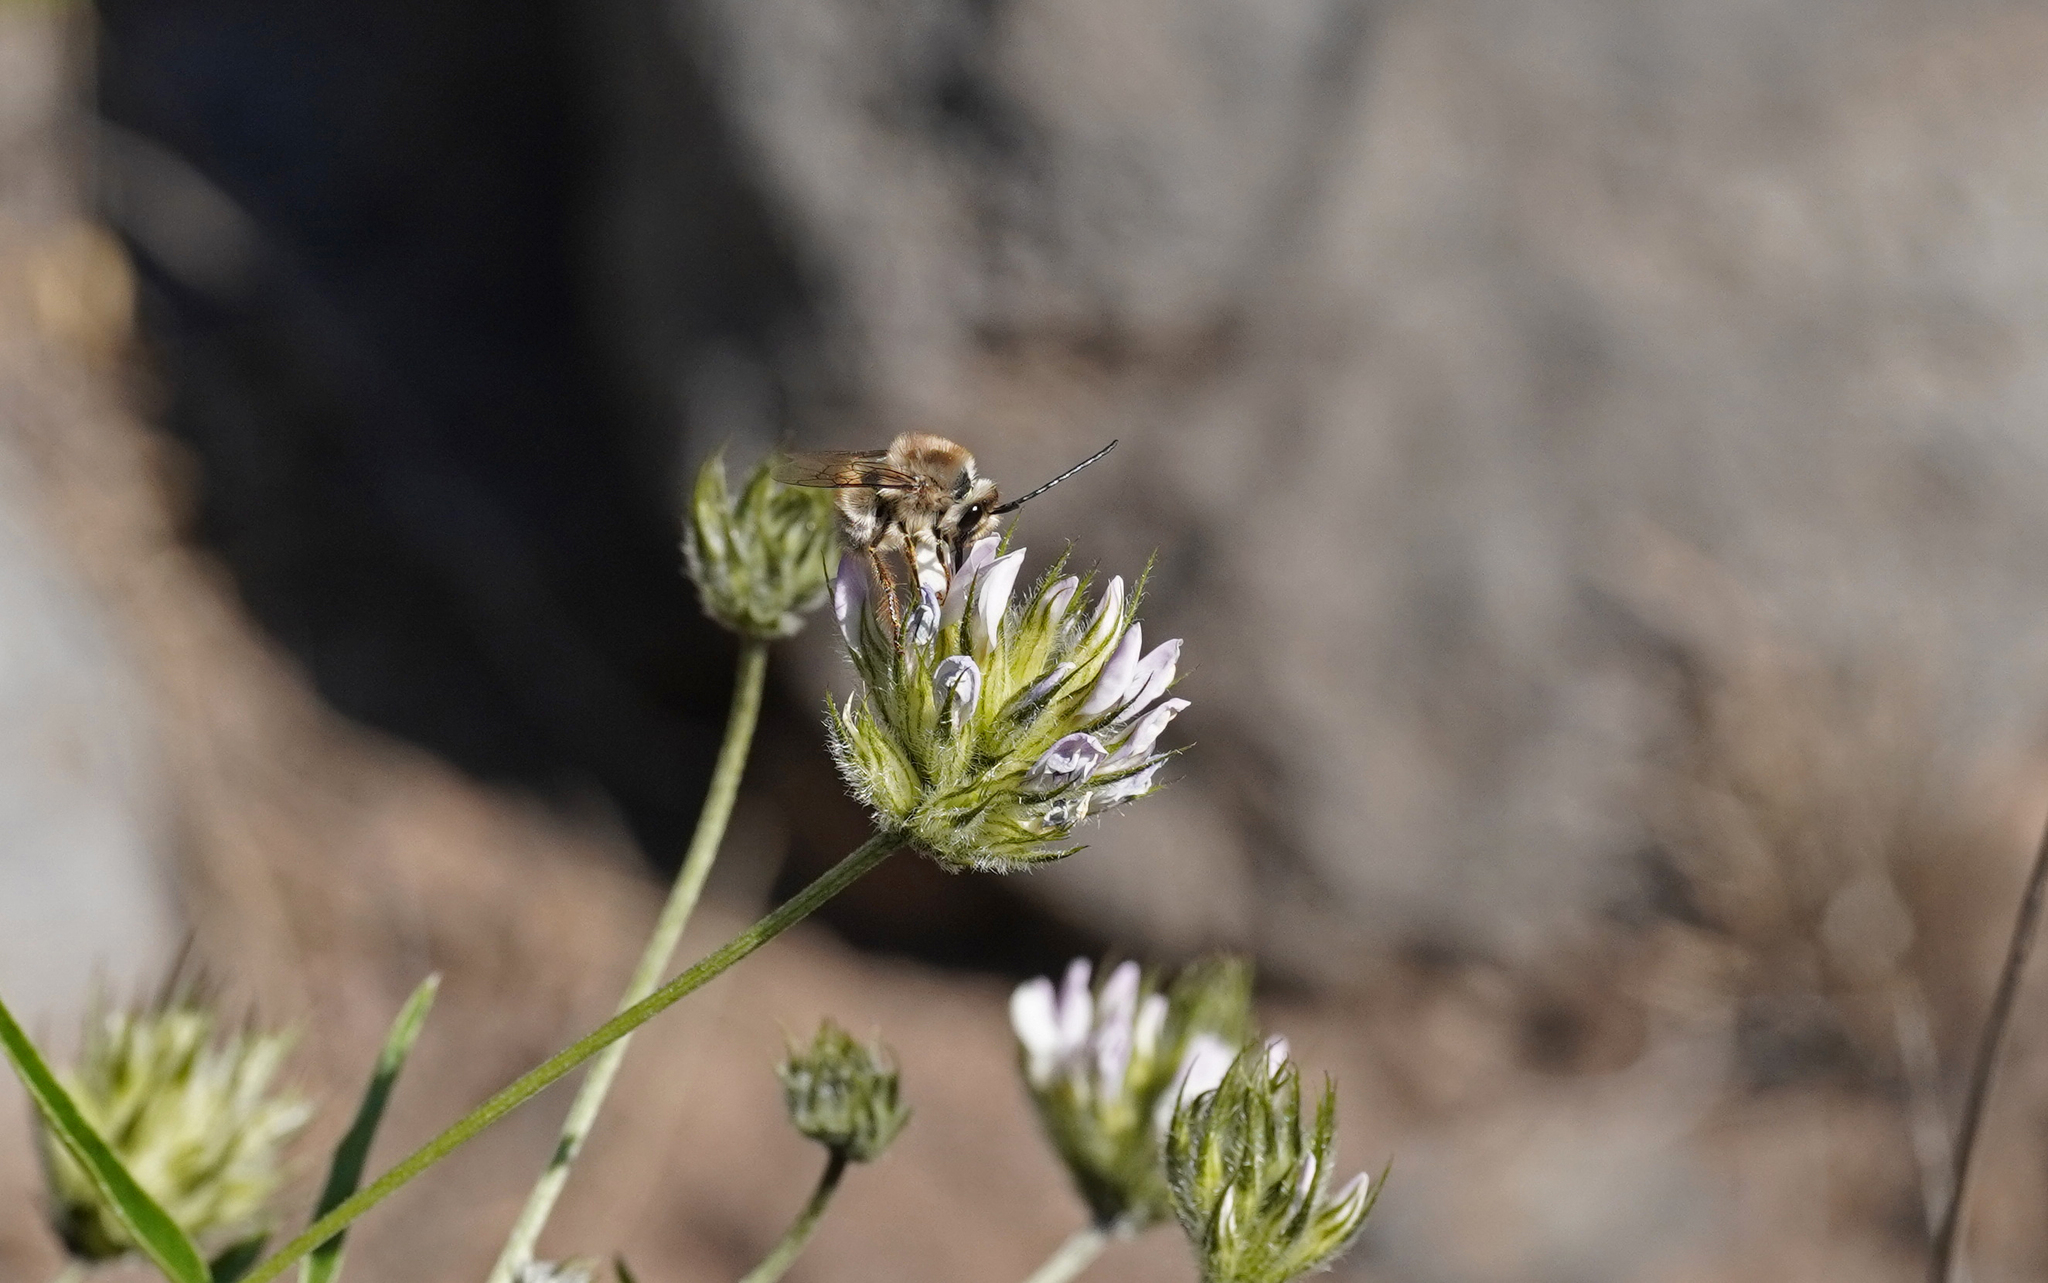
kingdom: Animalia
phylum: Arthropoda
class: Insecta
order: Hymenoptera
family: Apidae
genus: Eucera
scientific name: Eucera gracilipes
